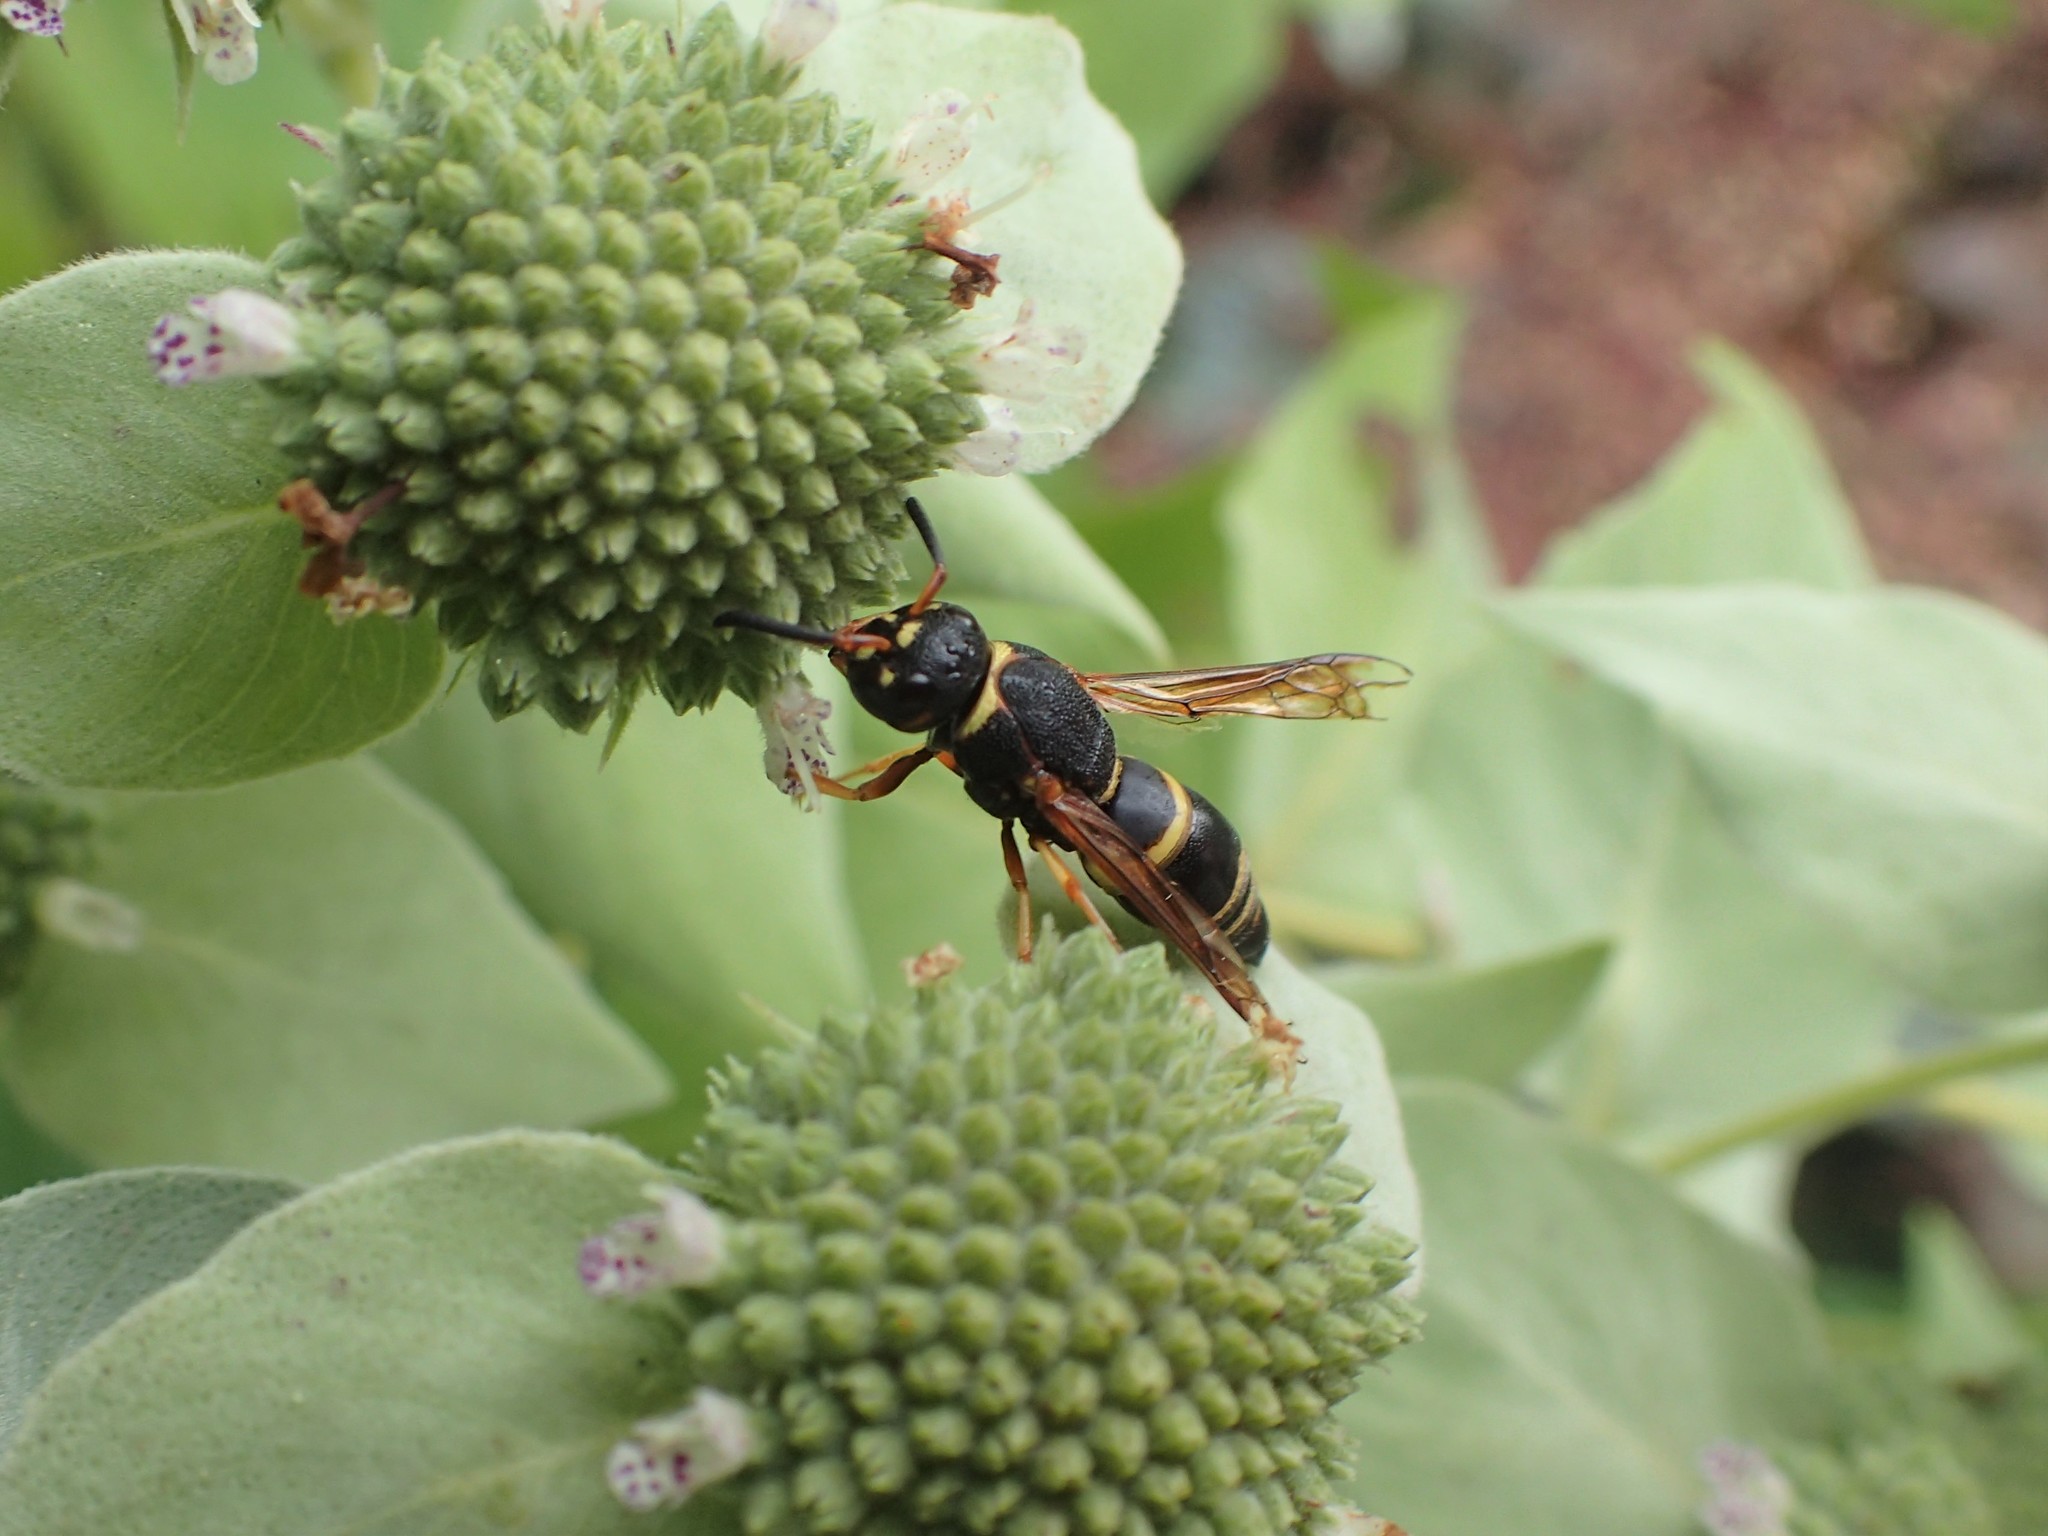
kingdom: Animalia
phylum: Arthropoda
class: Insecta
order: Hymenoptera
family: Eumenidae
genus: Euodynerus
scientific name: Euodynerus hidalgo
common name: Wasp
